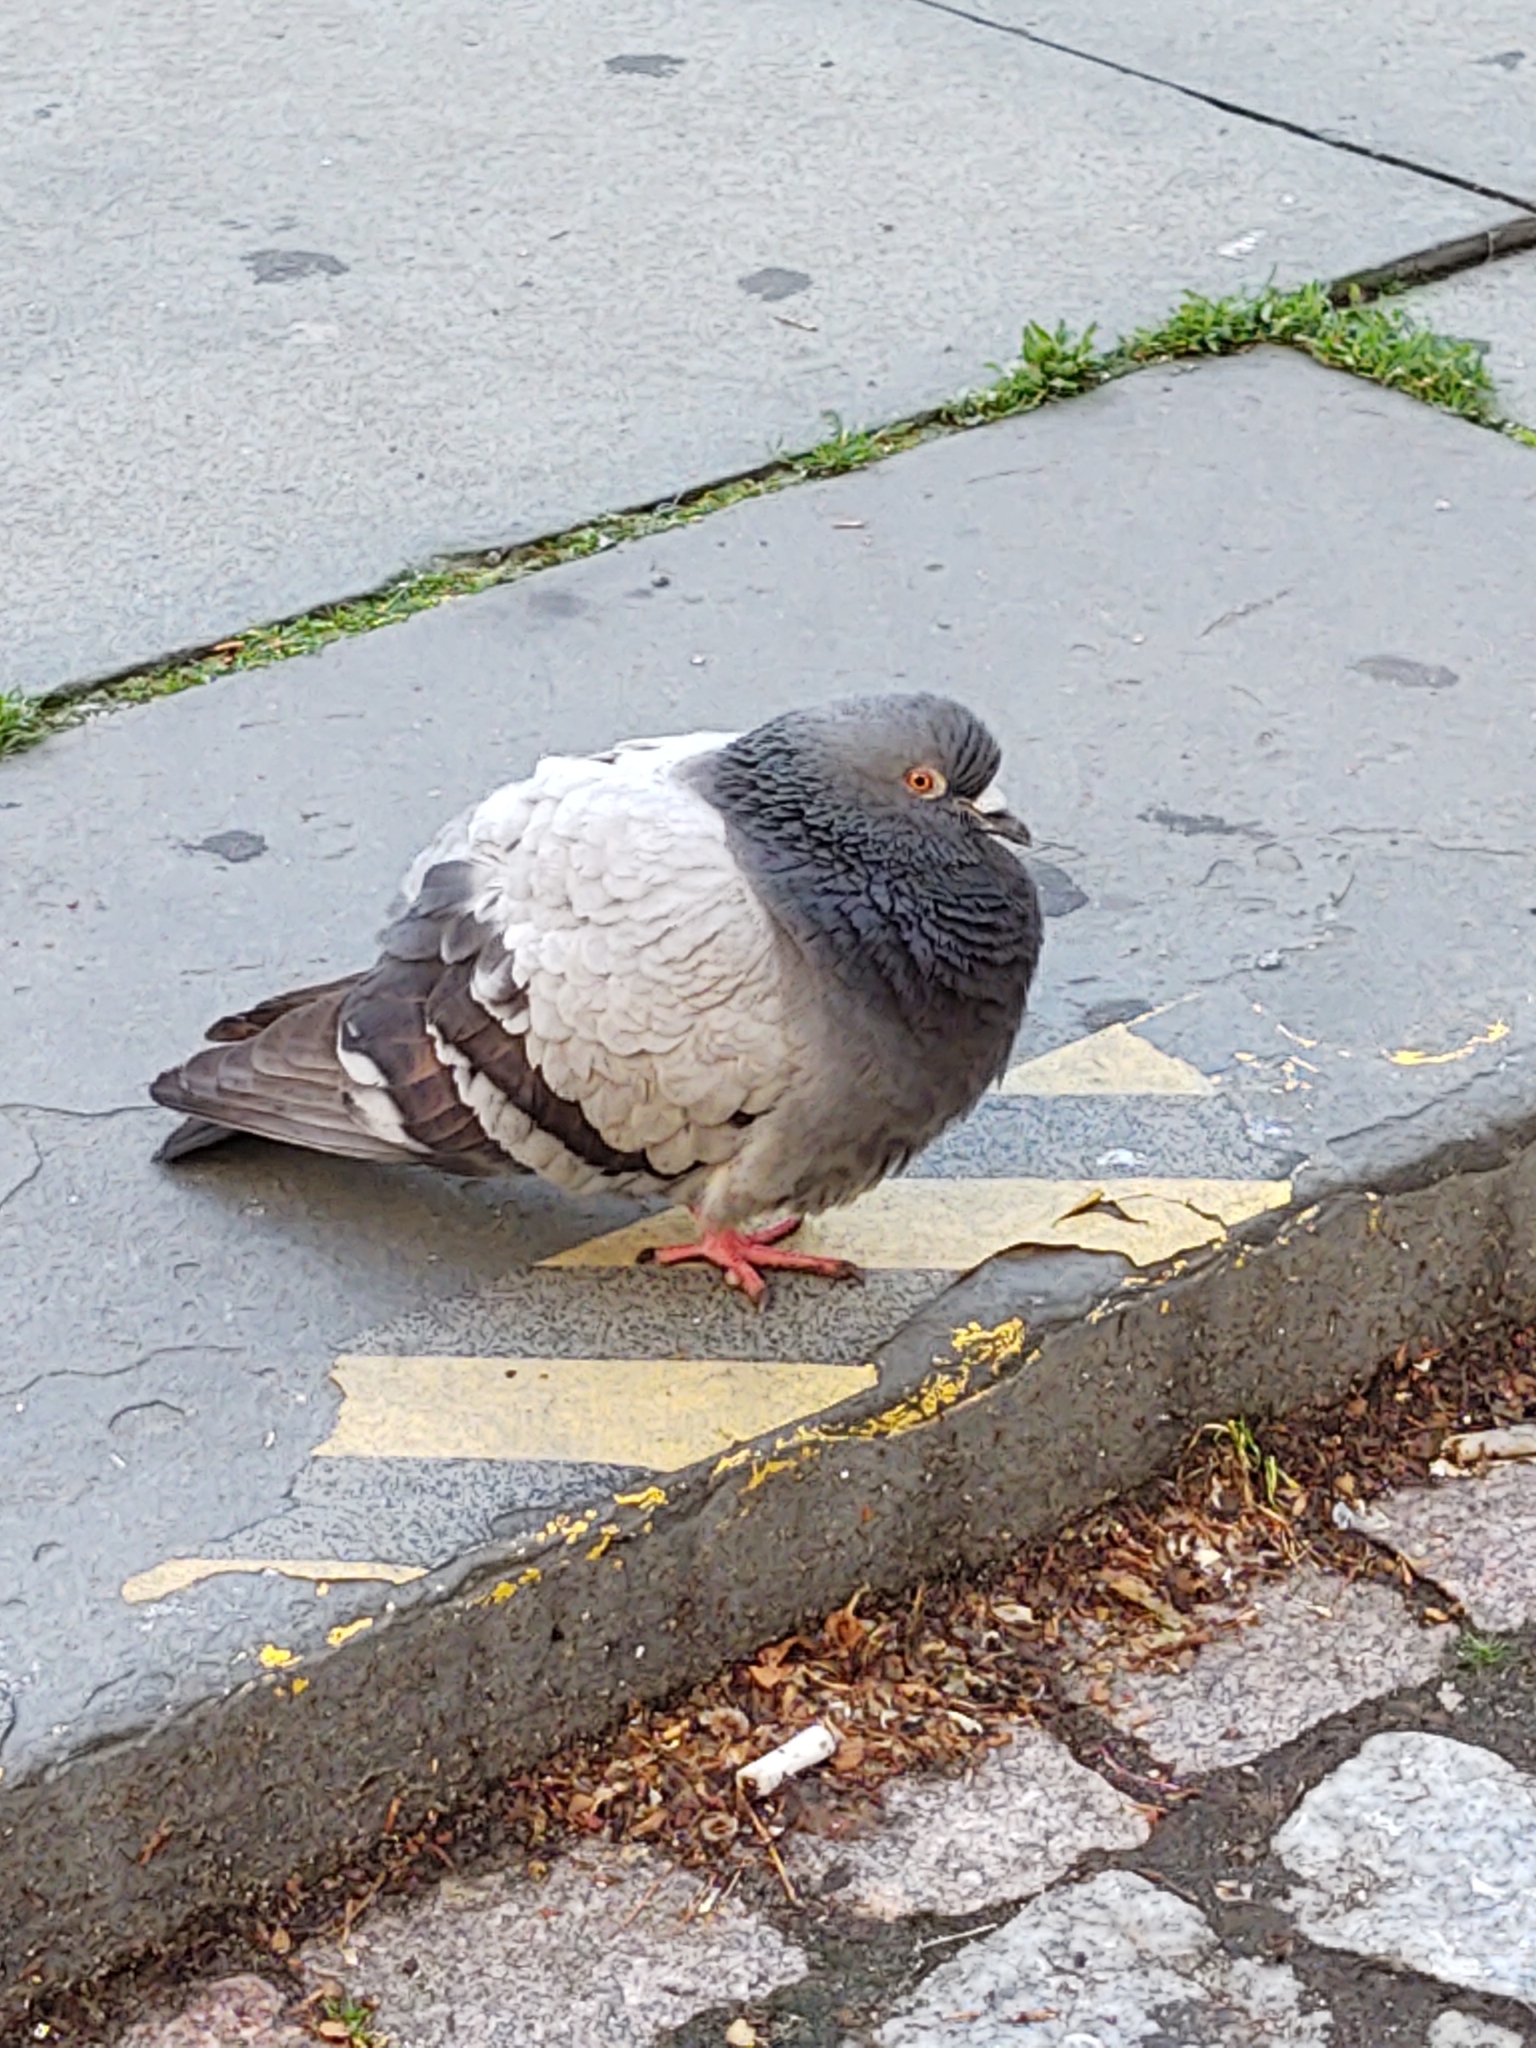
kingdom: Animalia
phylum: Chordata
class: Aves
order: Columbiformes
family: Columbidae
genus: Columba
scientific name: Columba livia
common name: Rock pigeon
